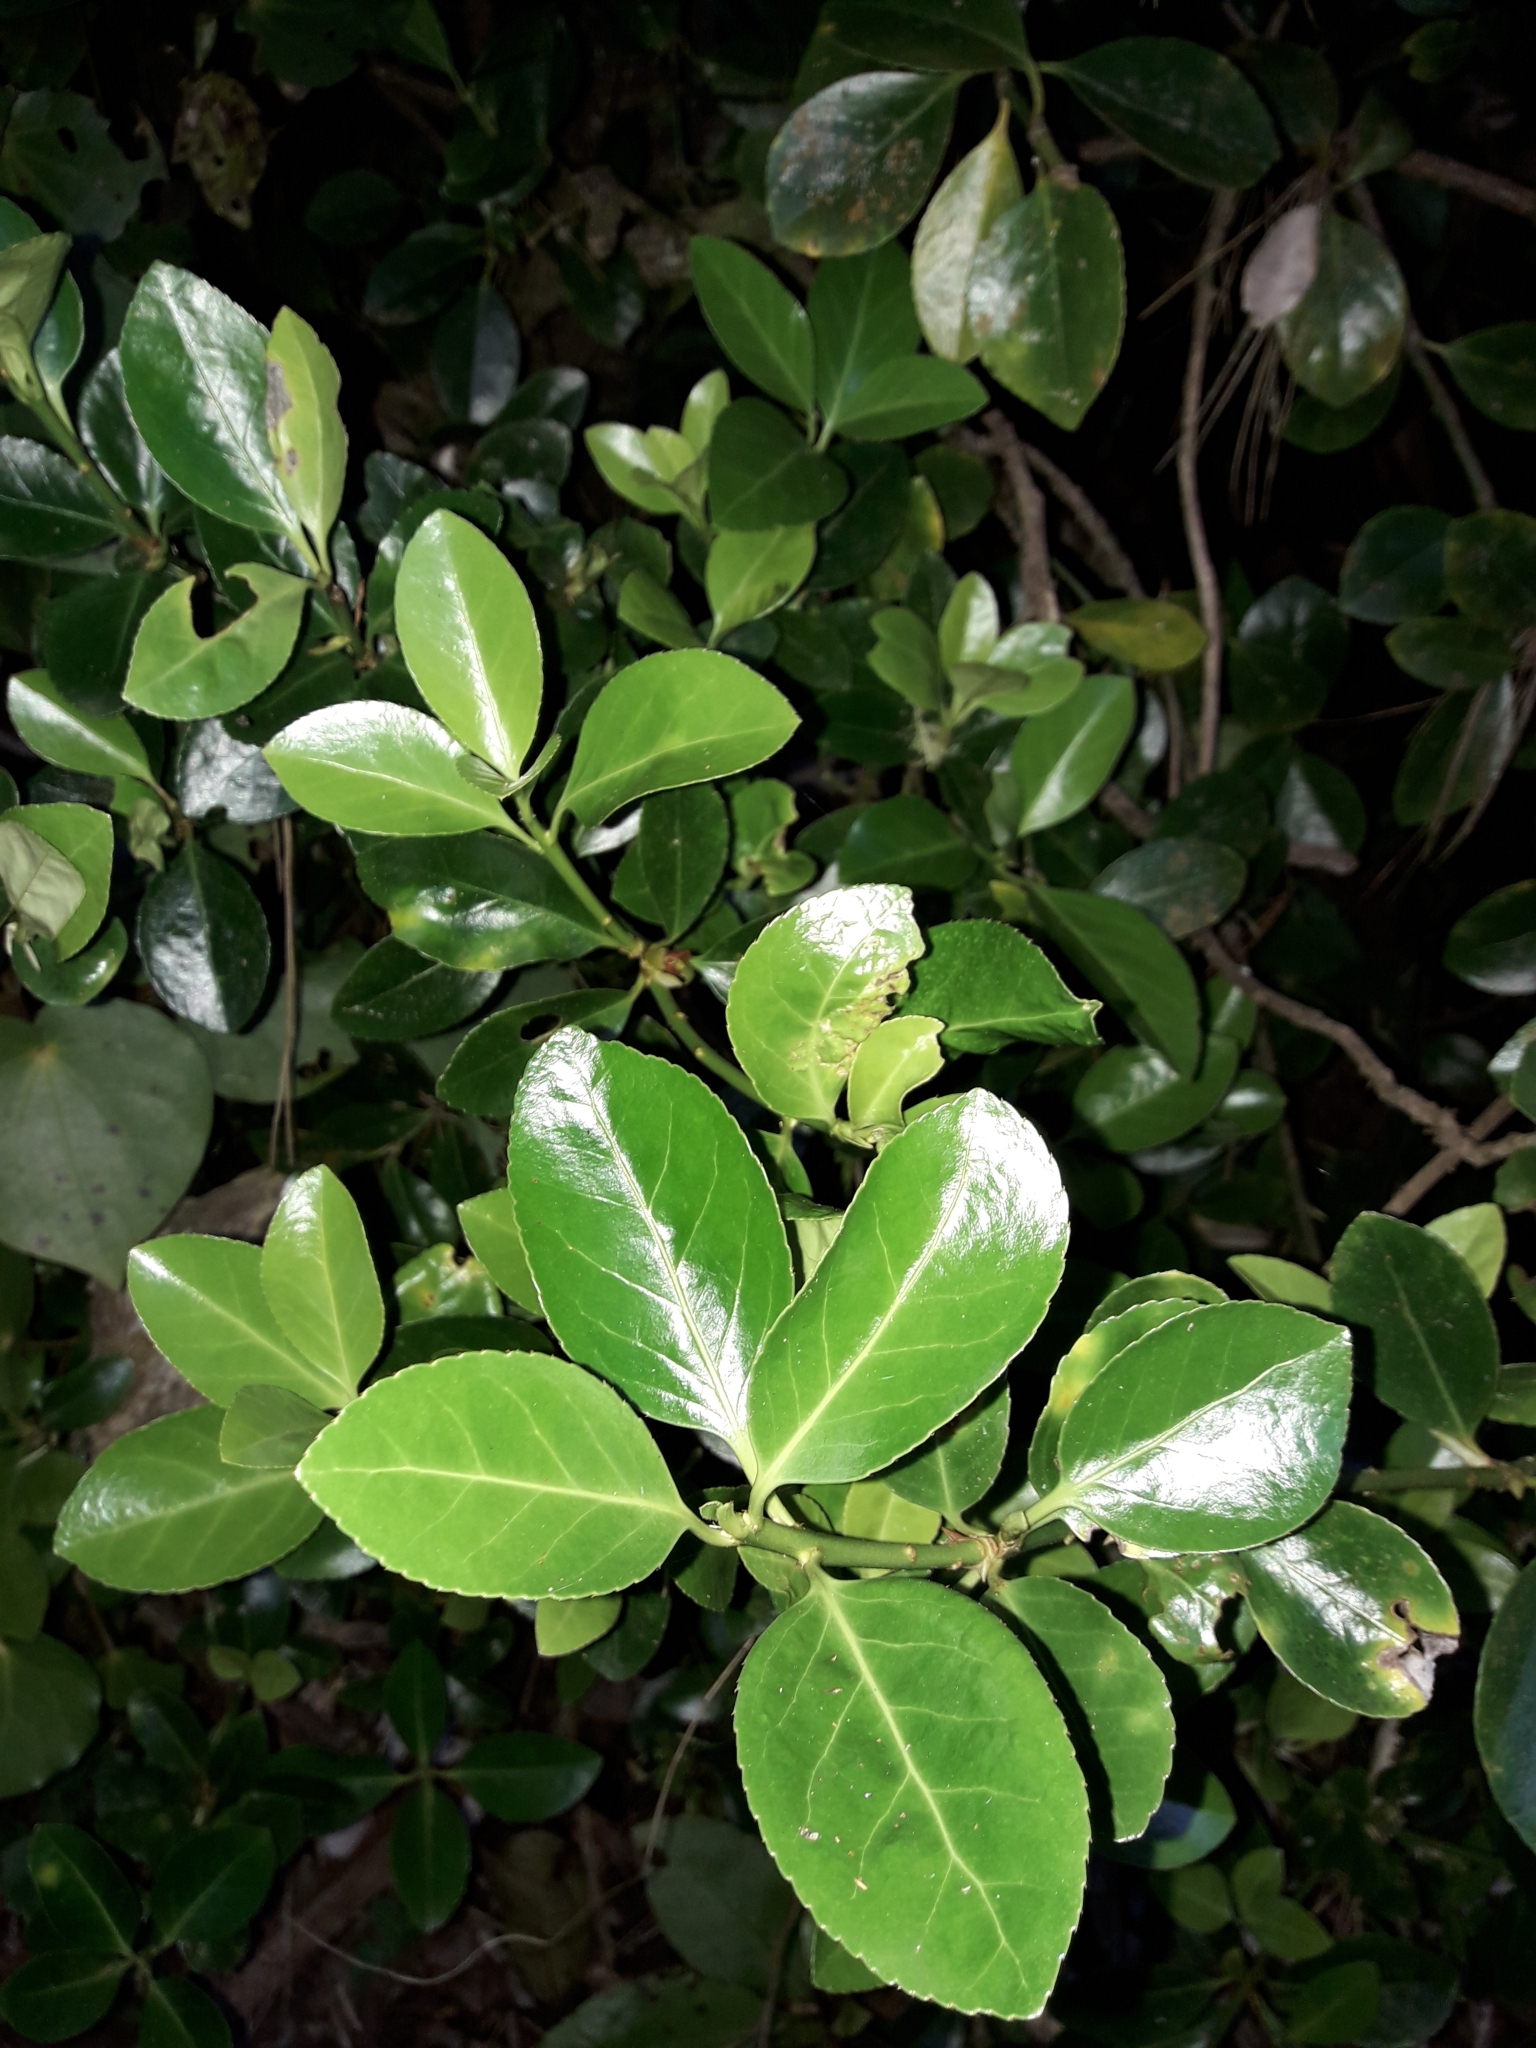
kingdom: Plantae
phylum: Tracheophyta
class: Magnoliopsida
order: Celastrales
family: Celastraceae
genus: Euonymus
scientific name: Euonymus japonicus
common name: Japanese spindletree
